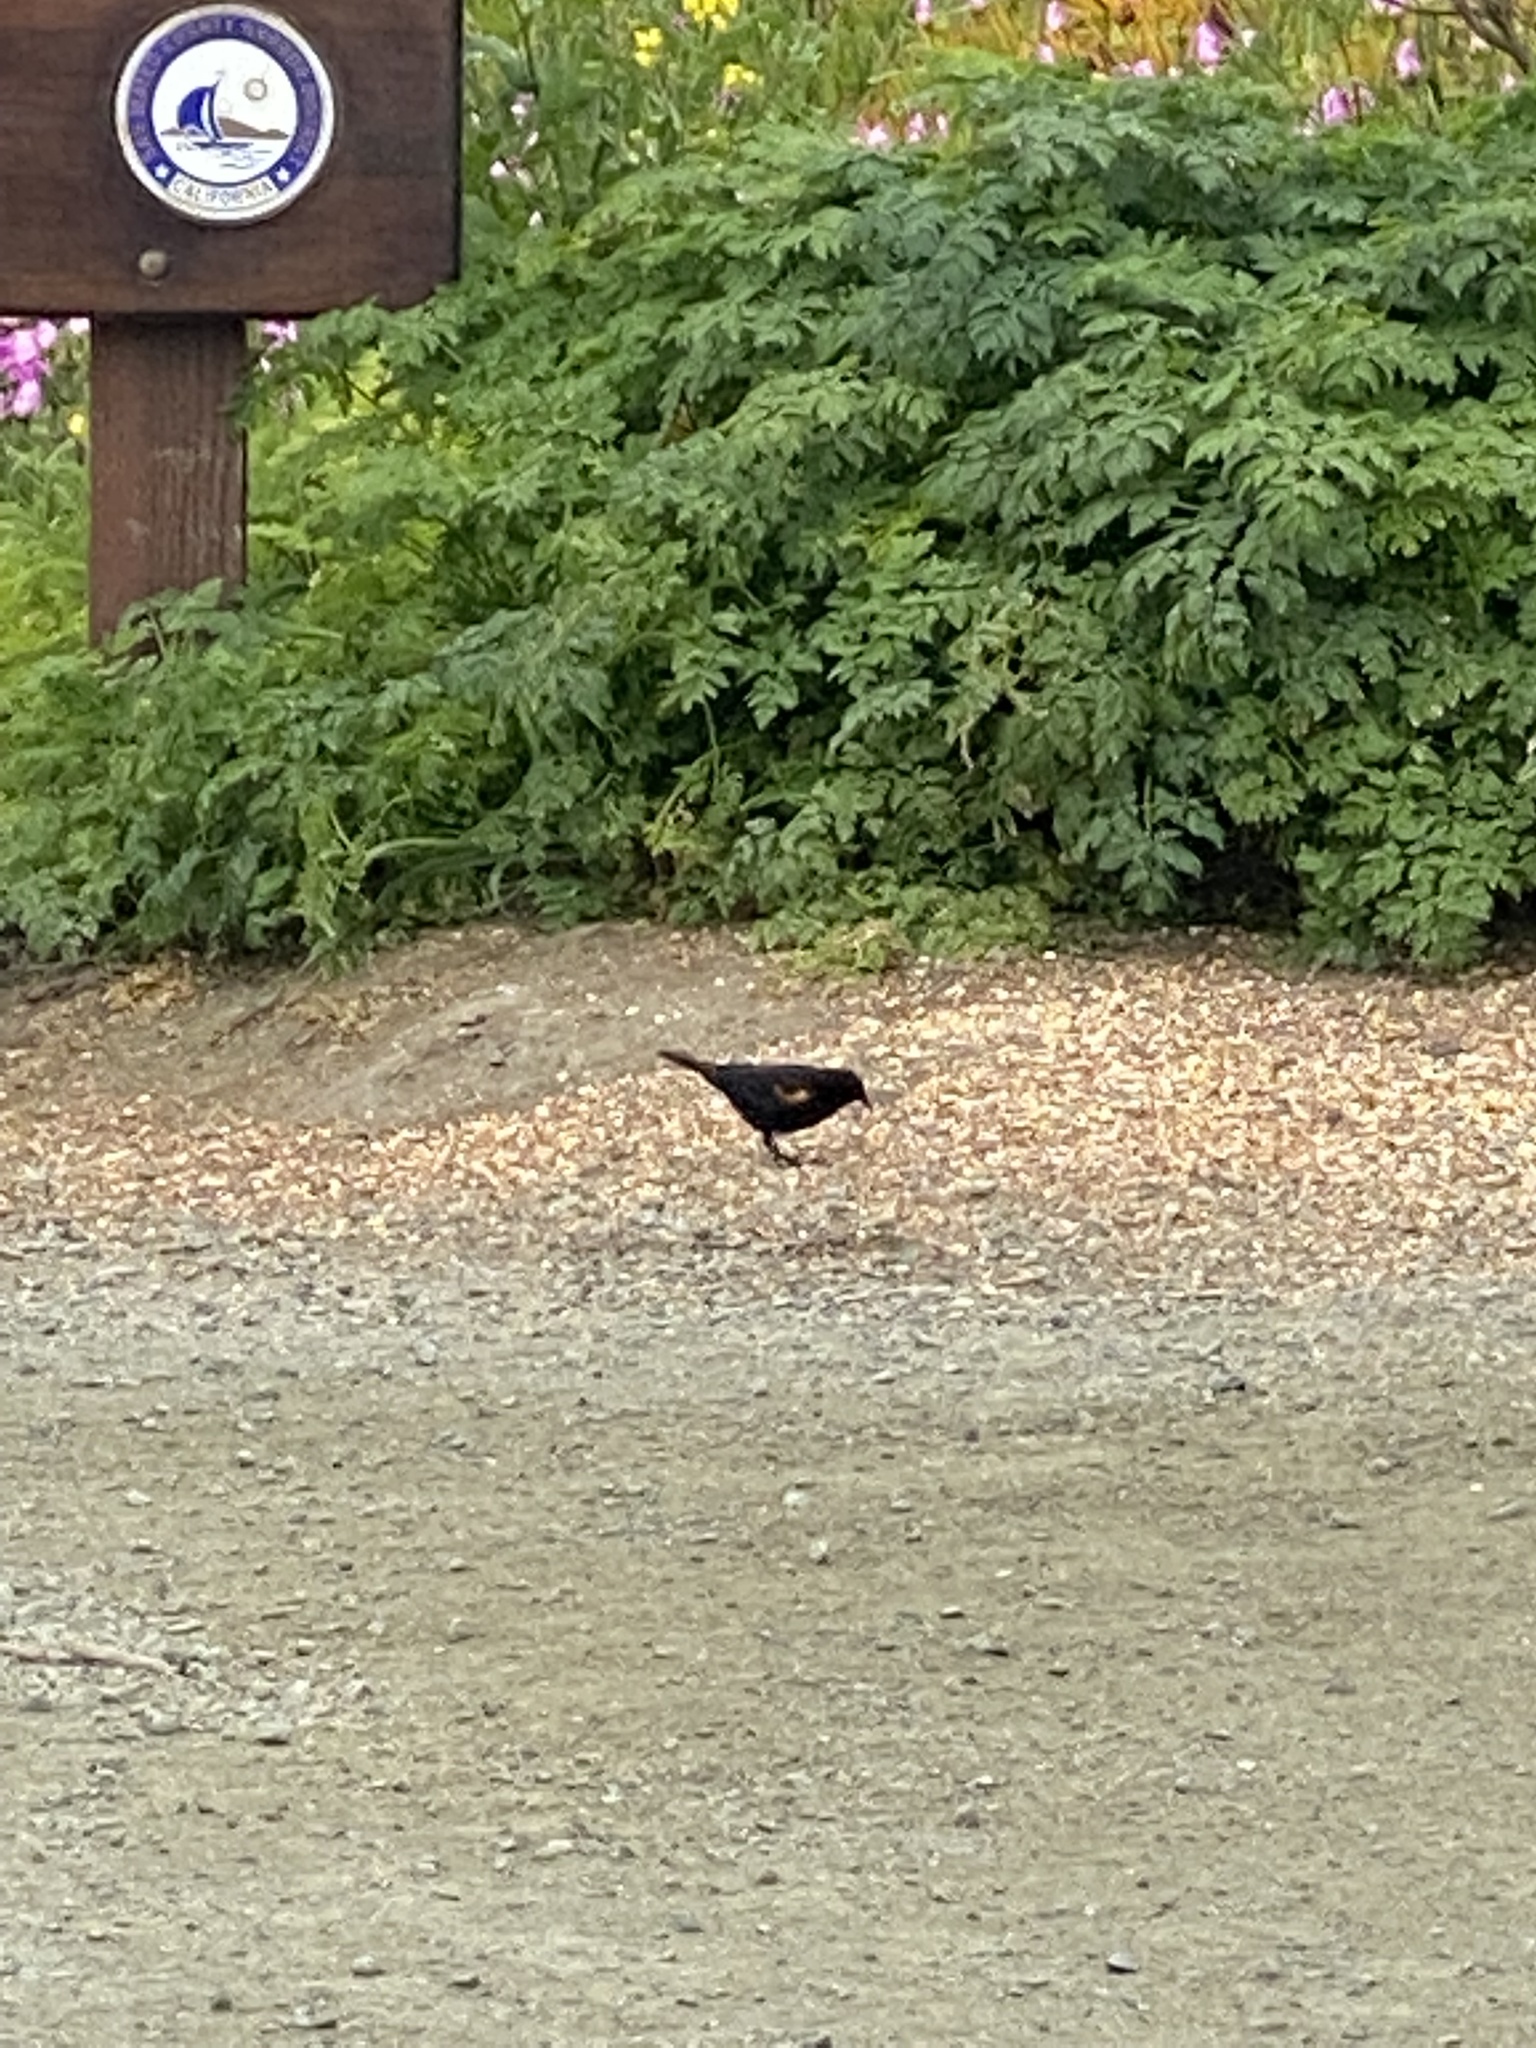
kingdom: Animalia
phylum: Chordata
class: Aves
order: Passeriformes
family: Icteridae
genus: Agelaius
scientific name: Agelaius phoeniceus
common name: Red-winged blackbird
